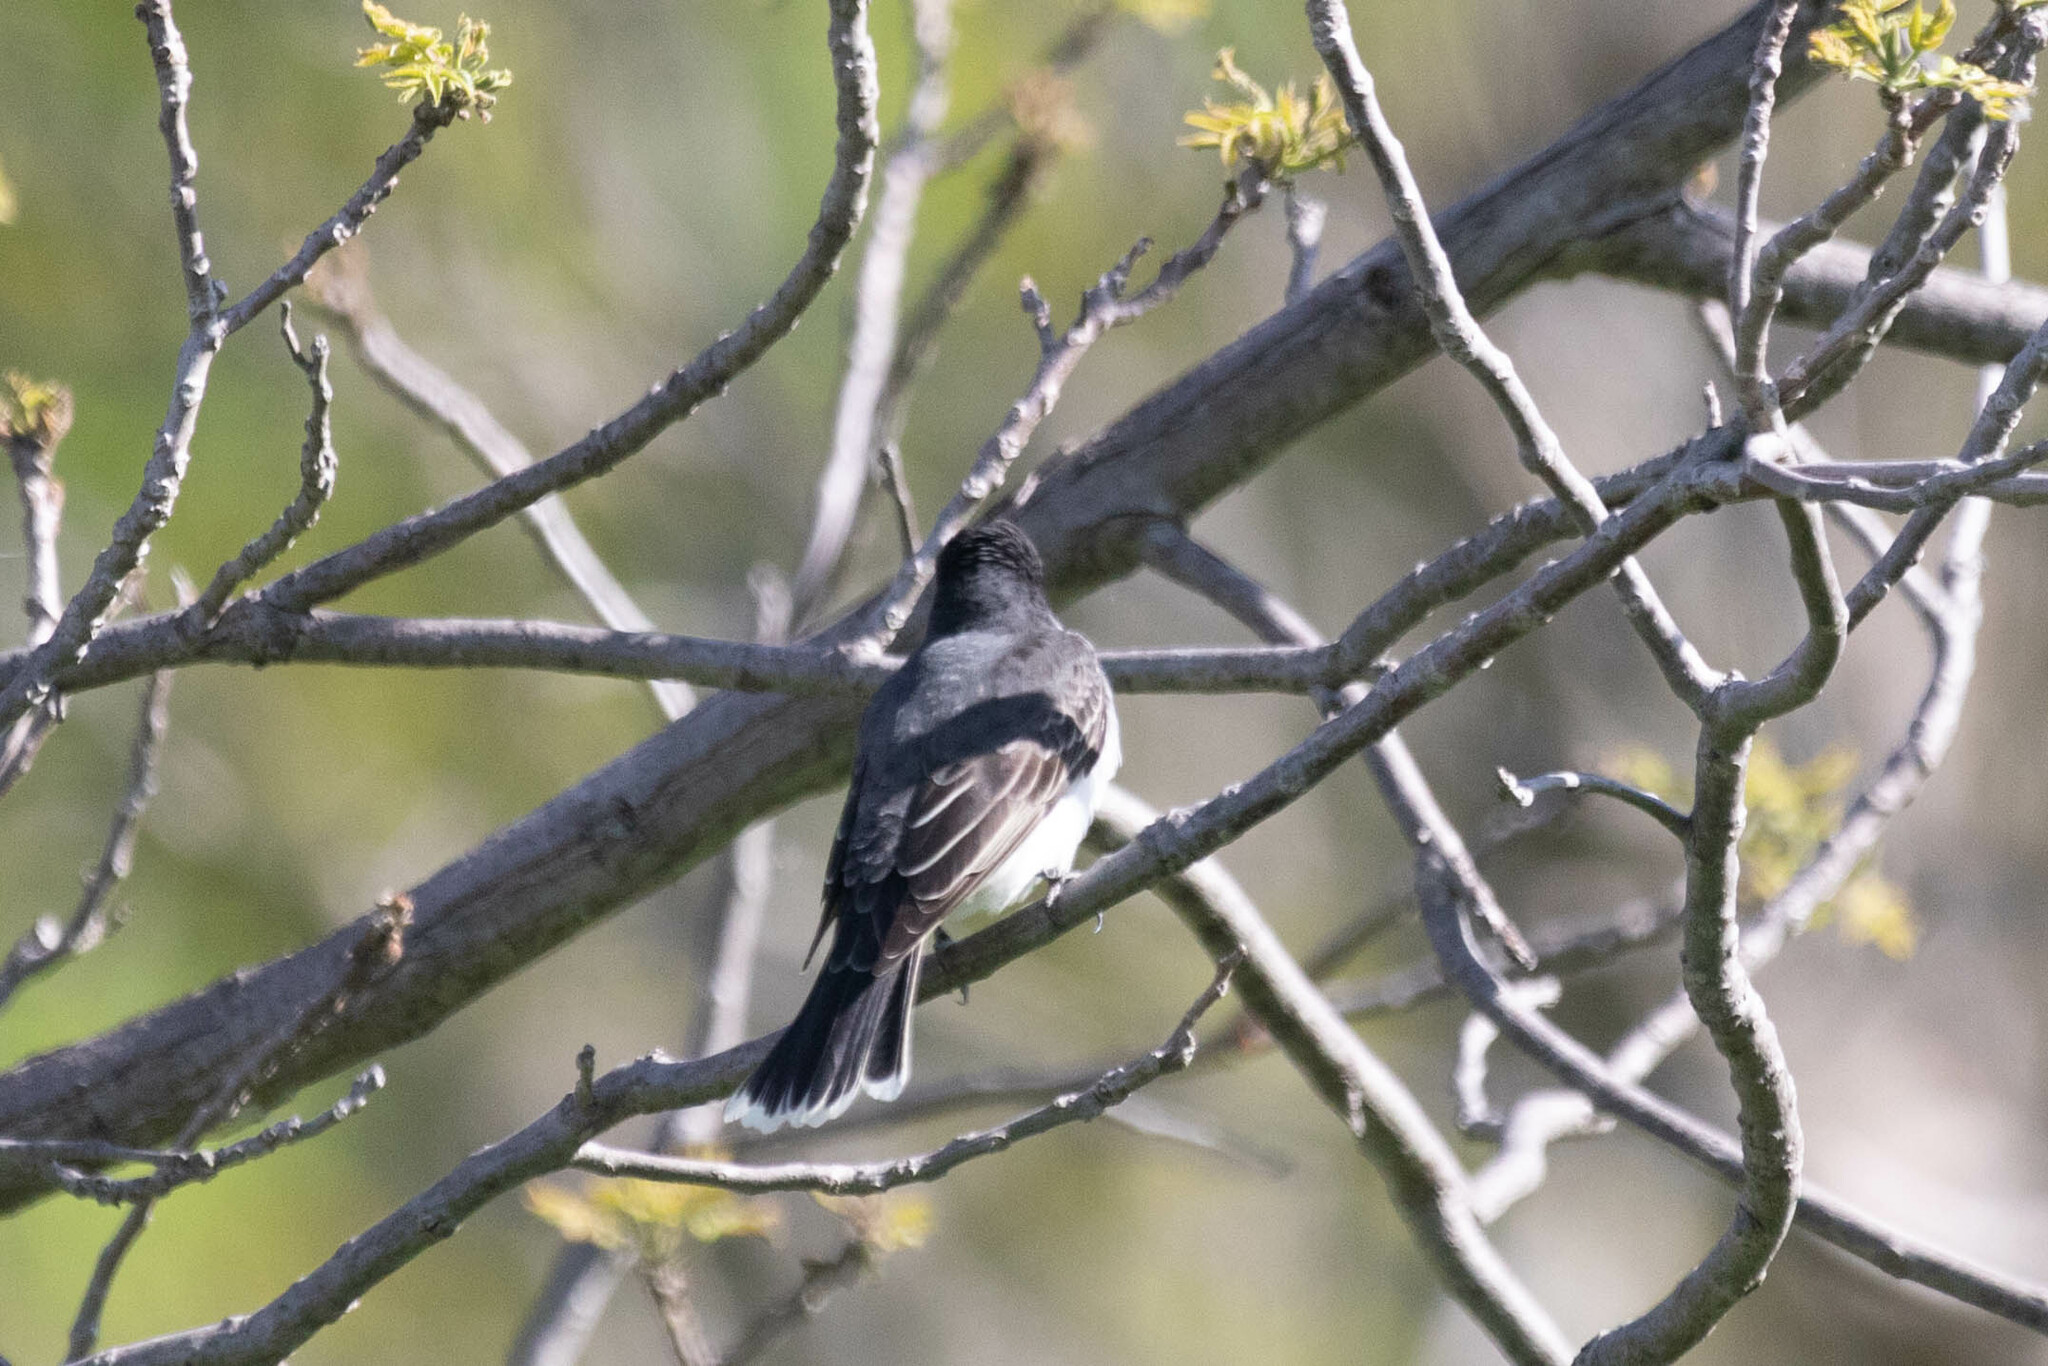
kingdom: Animalia
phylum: Chordata
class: Aves
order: Passeriformes
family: Tyrannidae
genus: Tyrannus
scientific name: Tyrannus tyrannus
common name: Eastern kingbird
